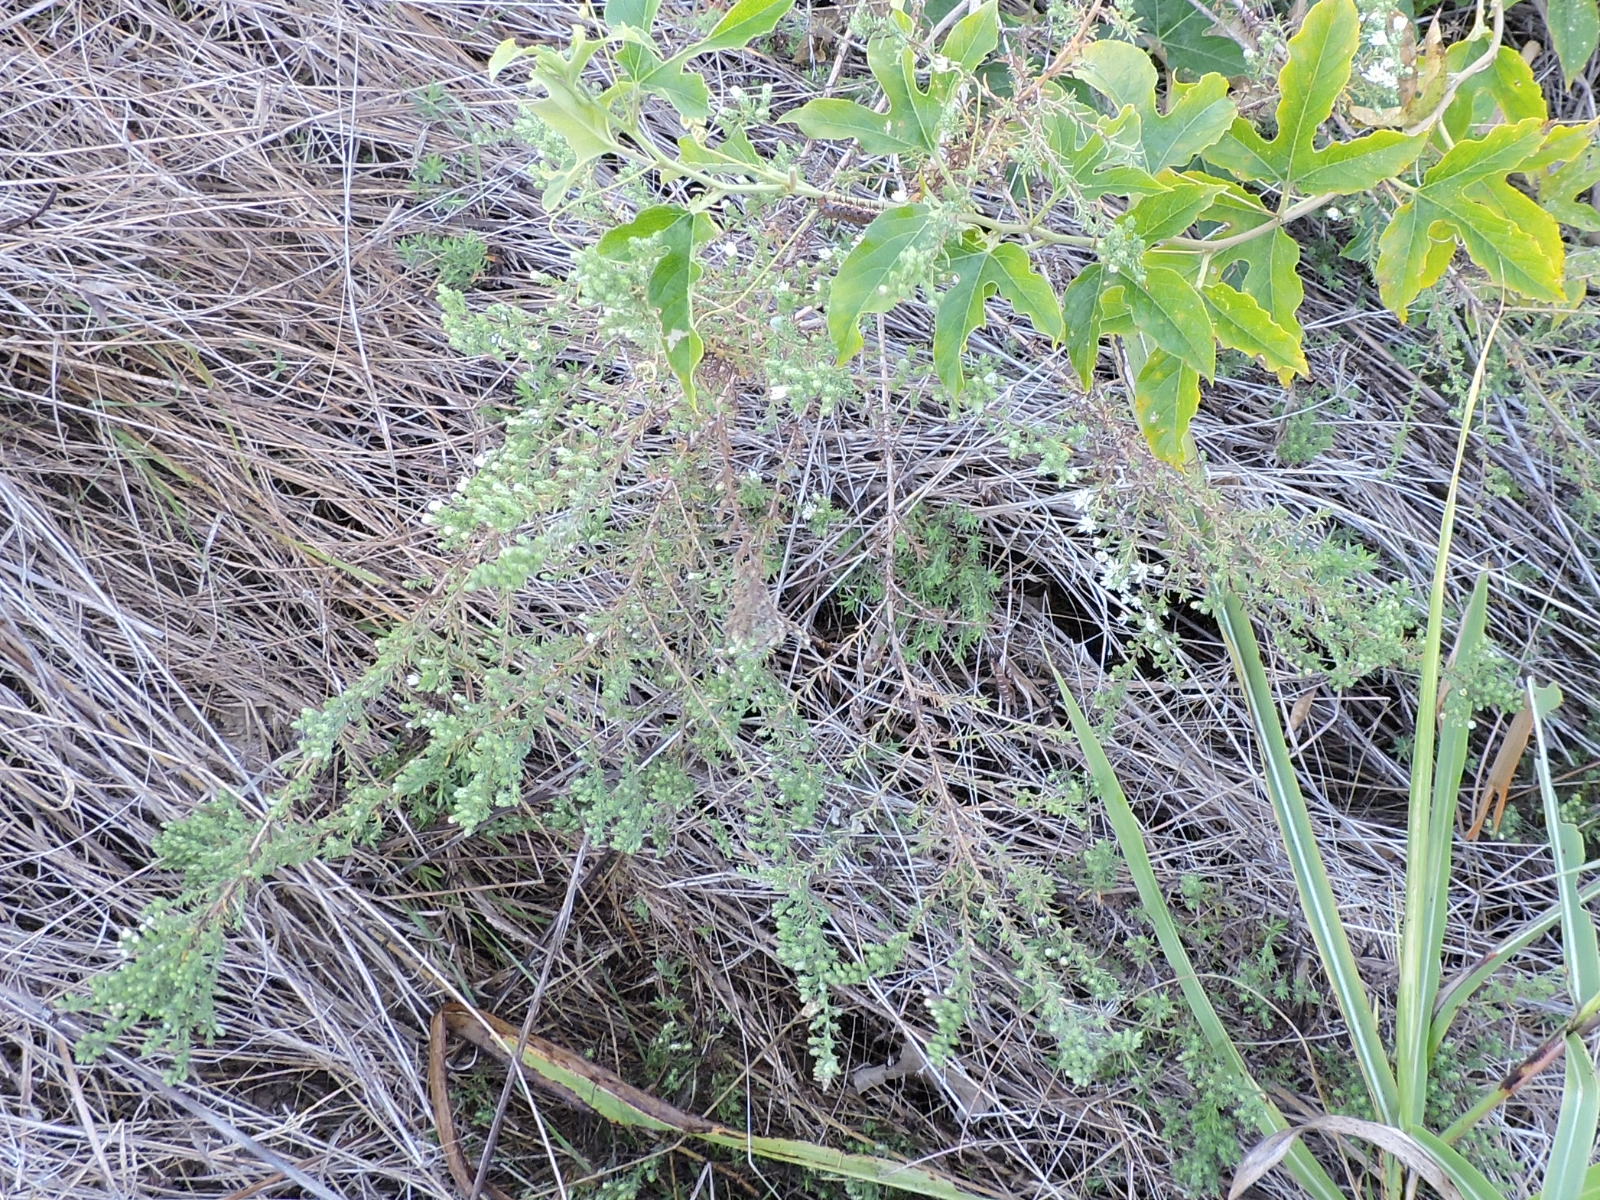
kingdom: Plantae
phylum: Tracheophyta
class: Magnoliopsida
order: Asterales
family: Asteraceae
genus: Symphyotrichum
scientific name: Symphyotrichum ericoides
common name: Heath aster
